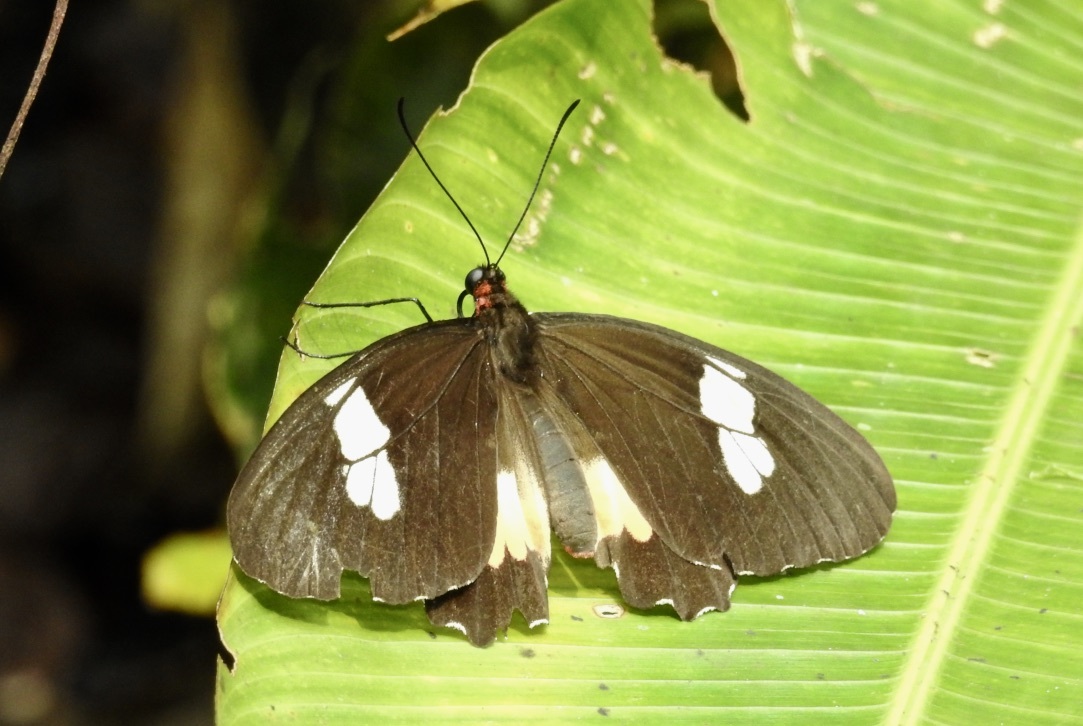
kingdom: Animalia
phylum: Arthropoda
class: Insecta
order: Lepidoptera
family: Papilionidae
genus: Parides
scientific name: Parides iphidamas
